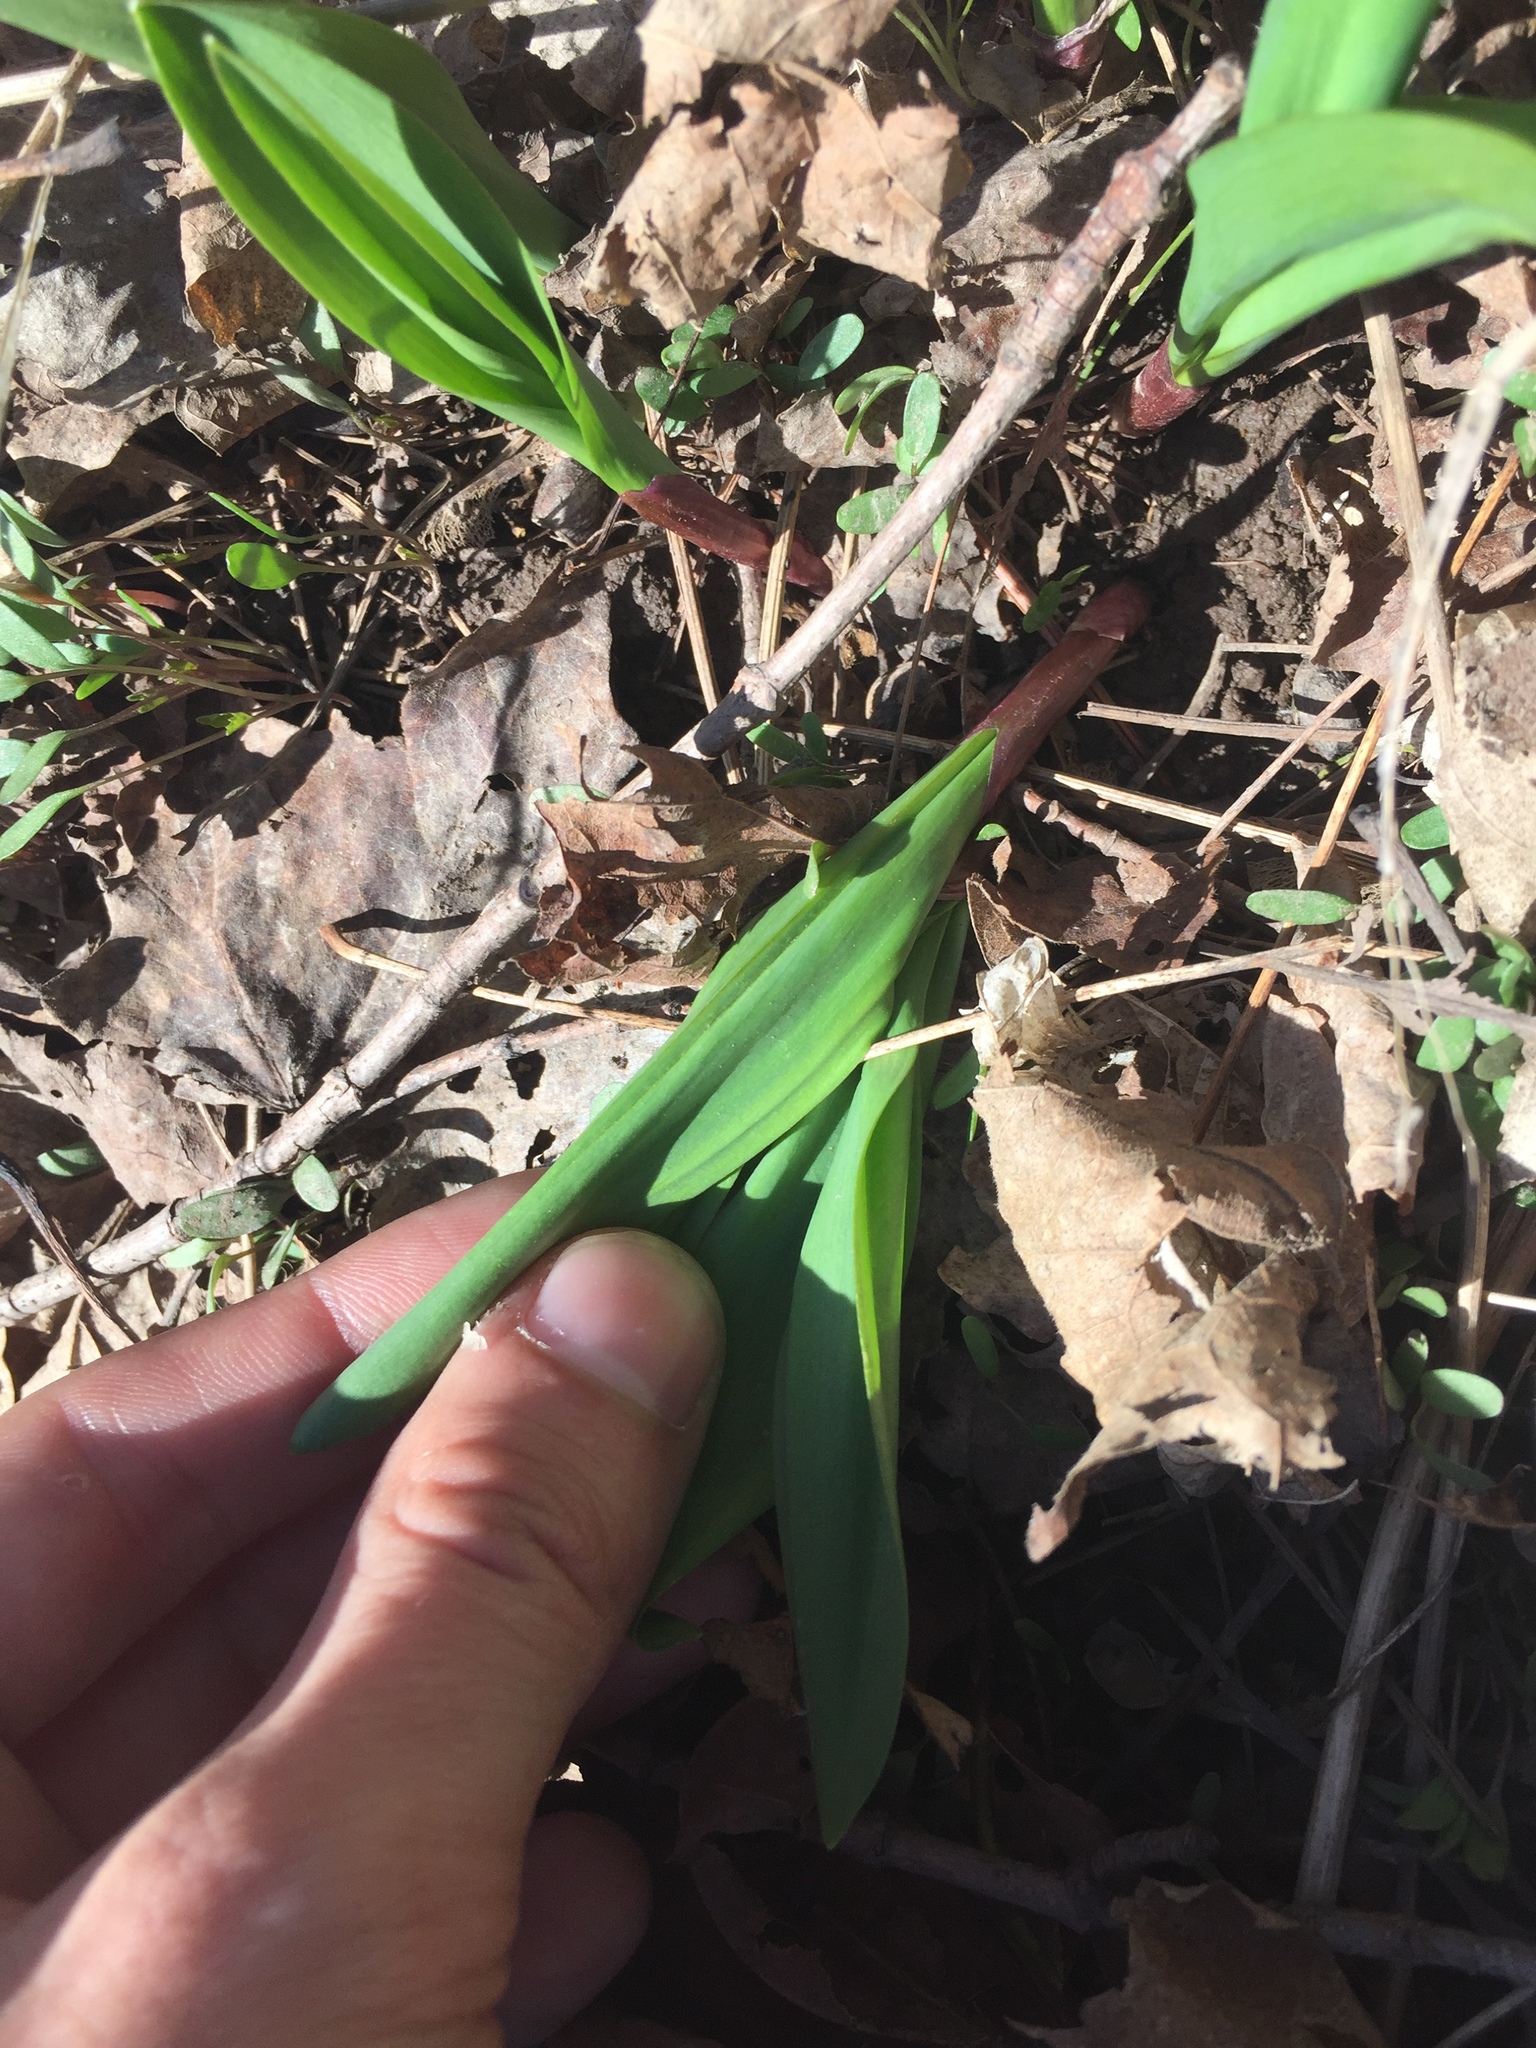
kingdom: Plantae
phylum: Tracheophyta
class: Liliopsida
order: Asparagales
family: Amaryllidaceae
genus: Allium
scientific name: Allium tricoccum
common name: Ramp
